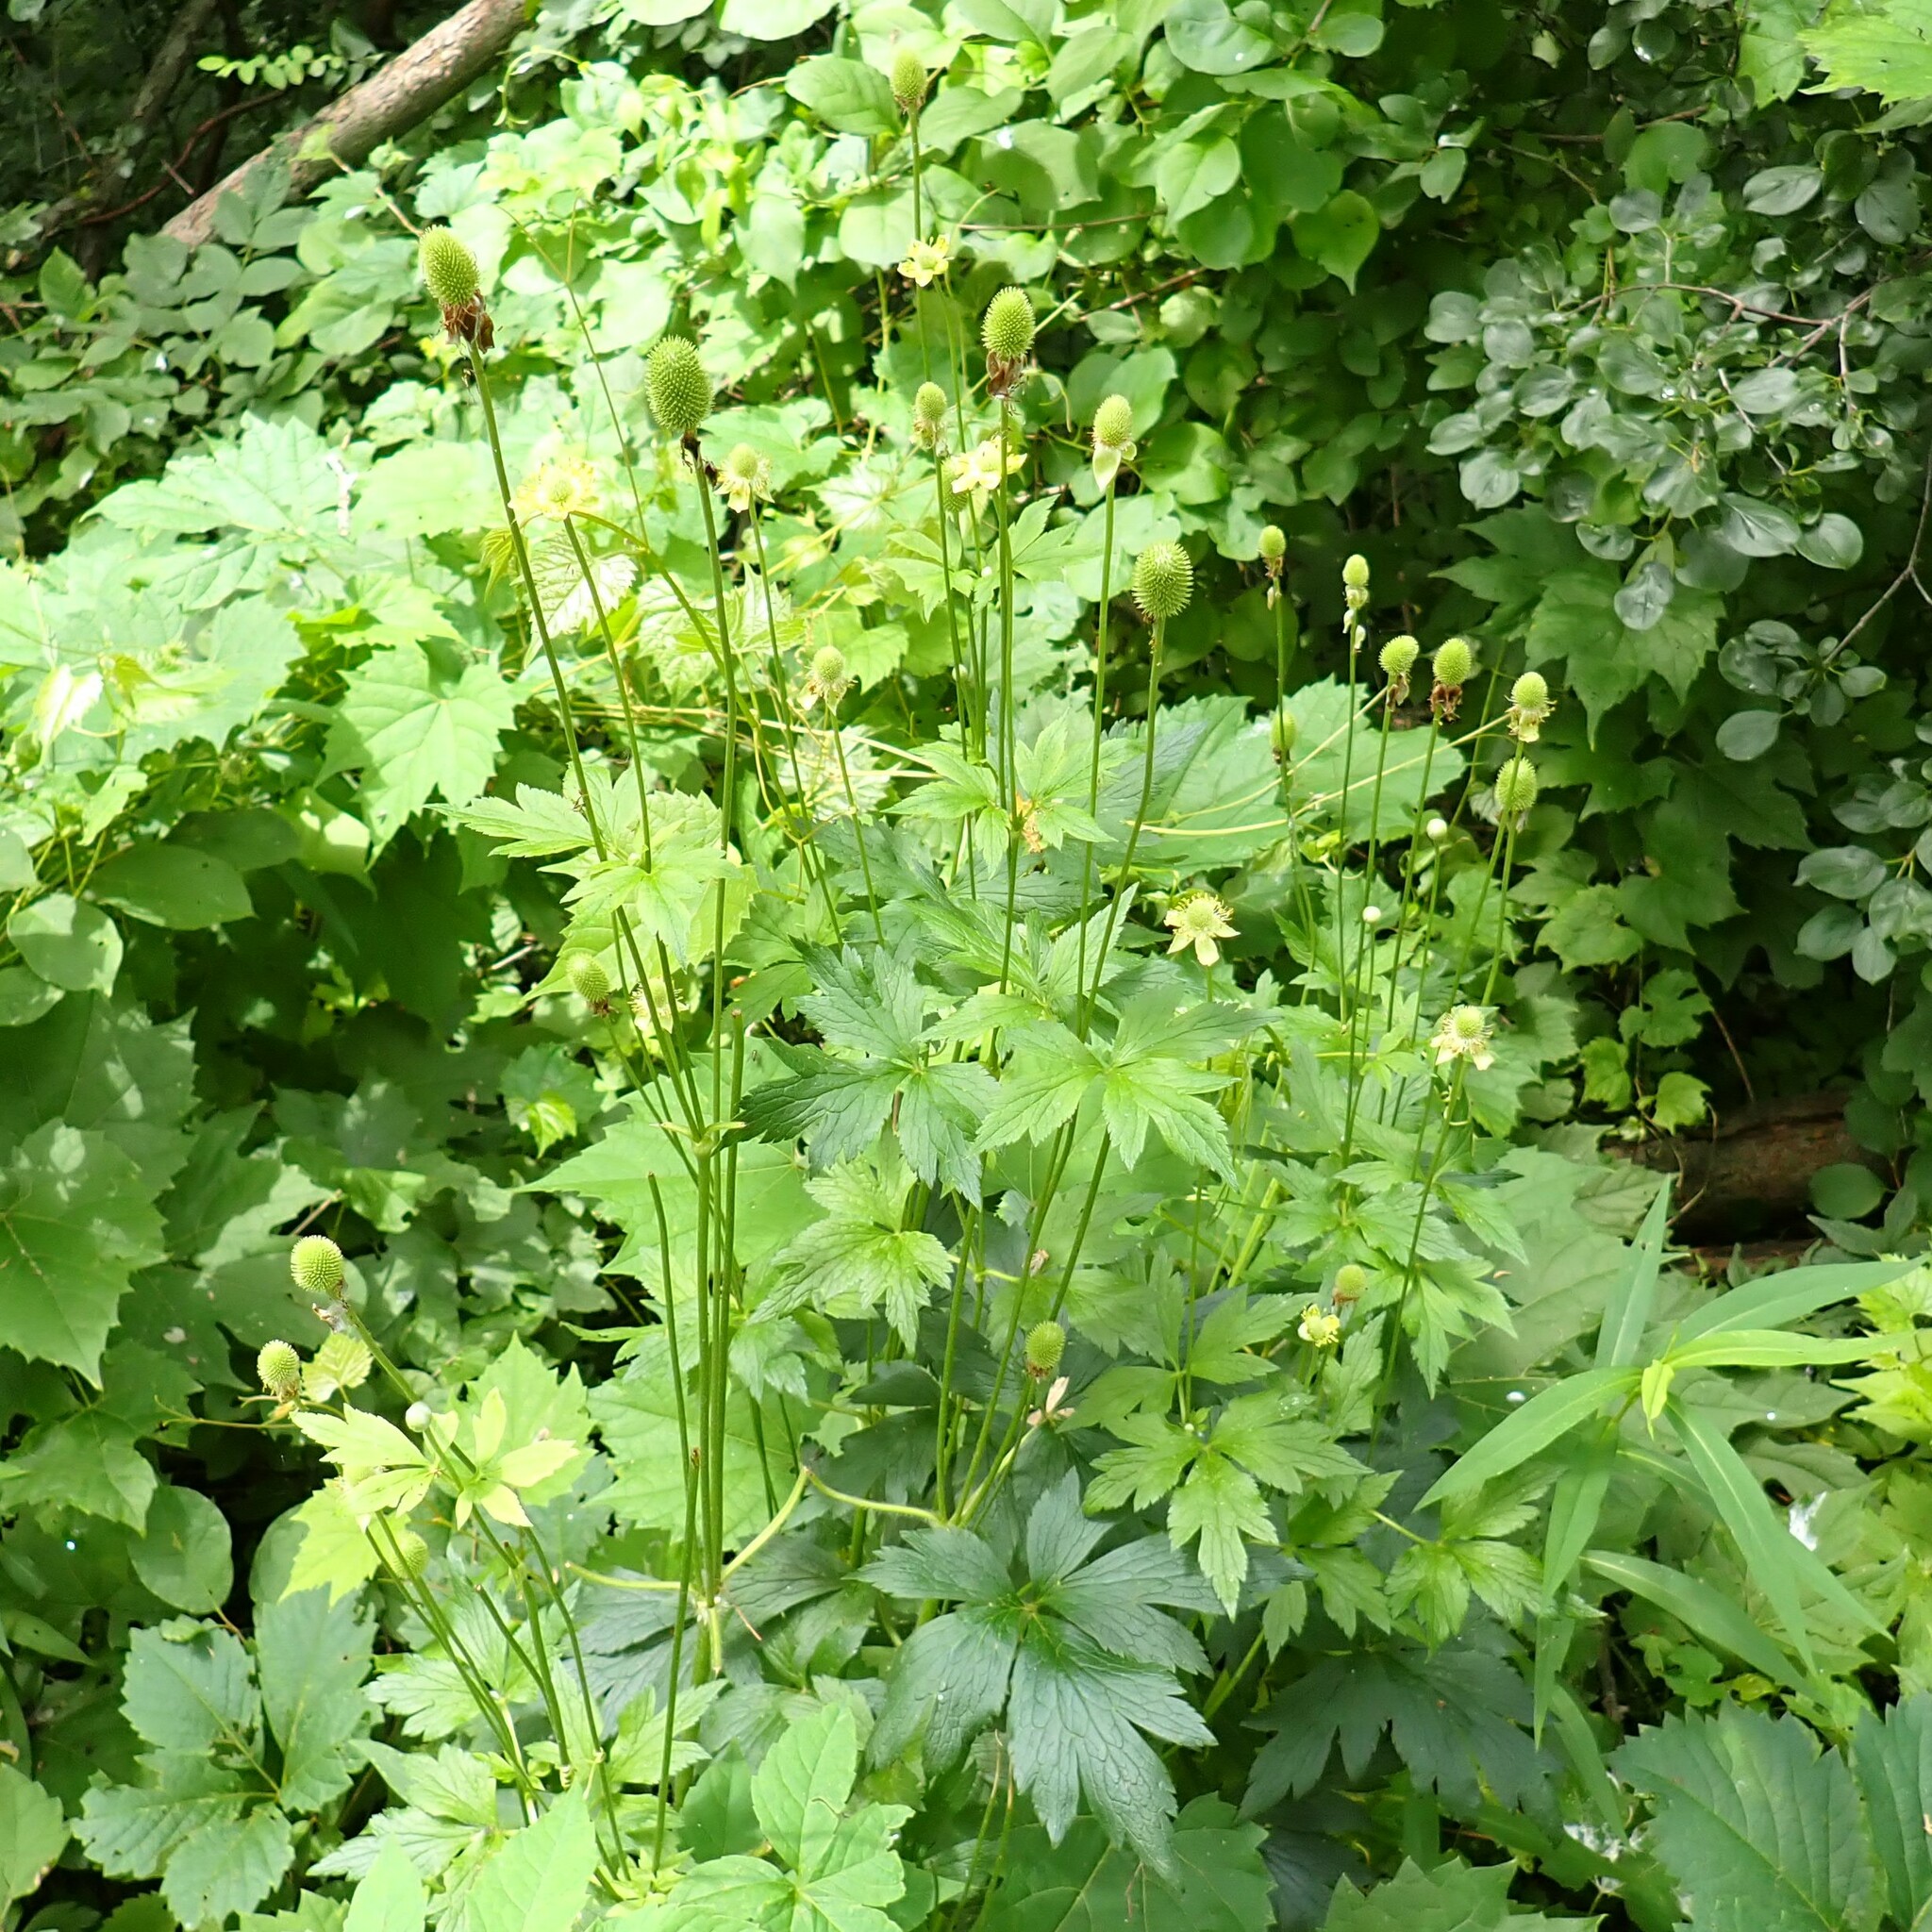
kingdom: Plantae
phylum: Tracheophyta
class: Magnoliopsida
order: Ranunculales
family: Ranunculaceae
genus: Anemone
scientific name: Anemone virginiana
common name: Tall anemone
